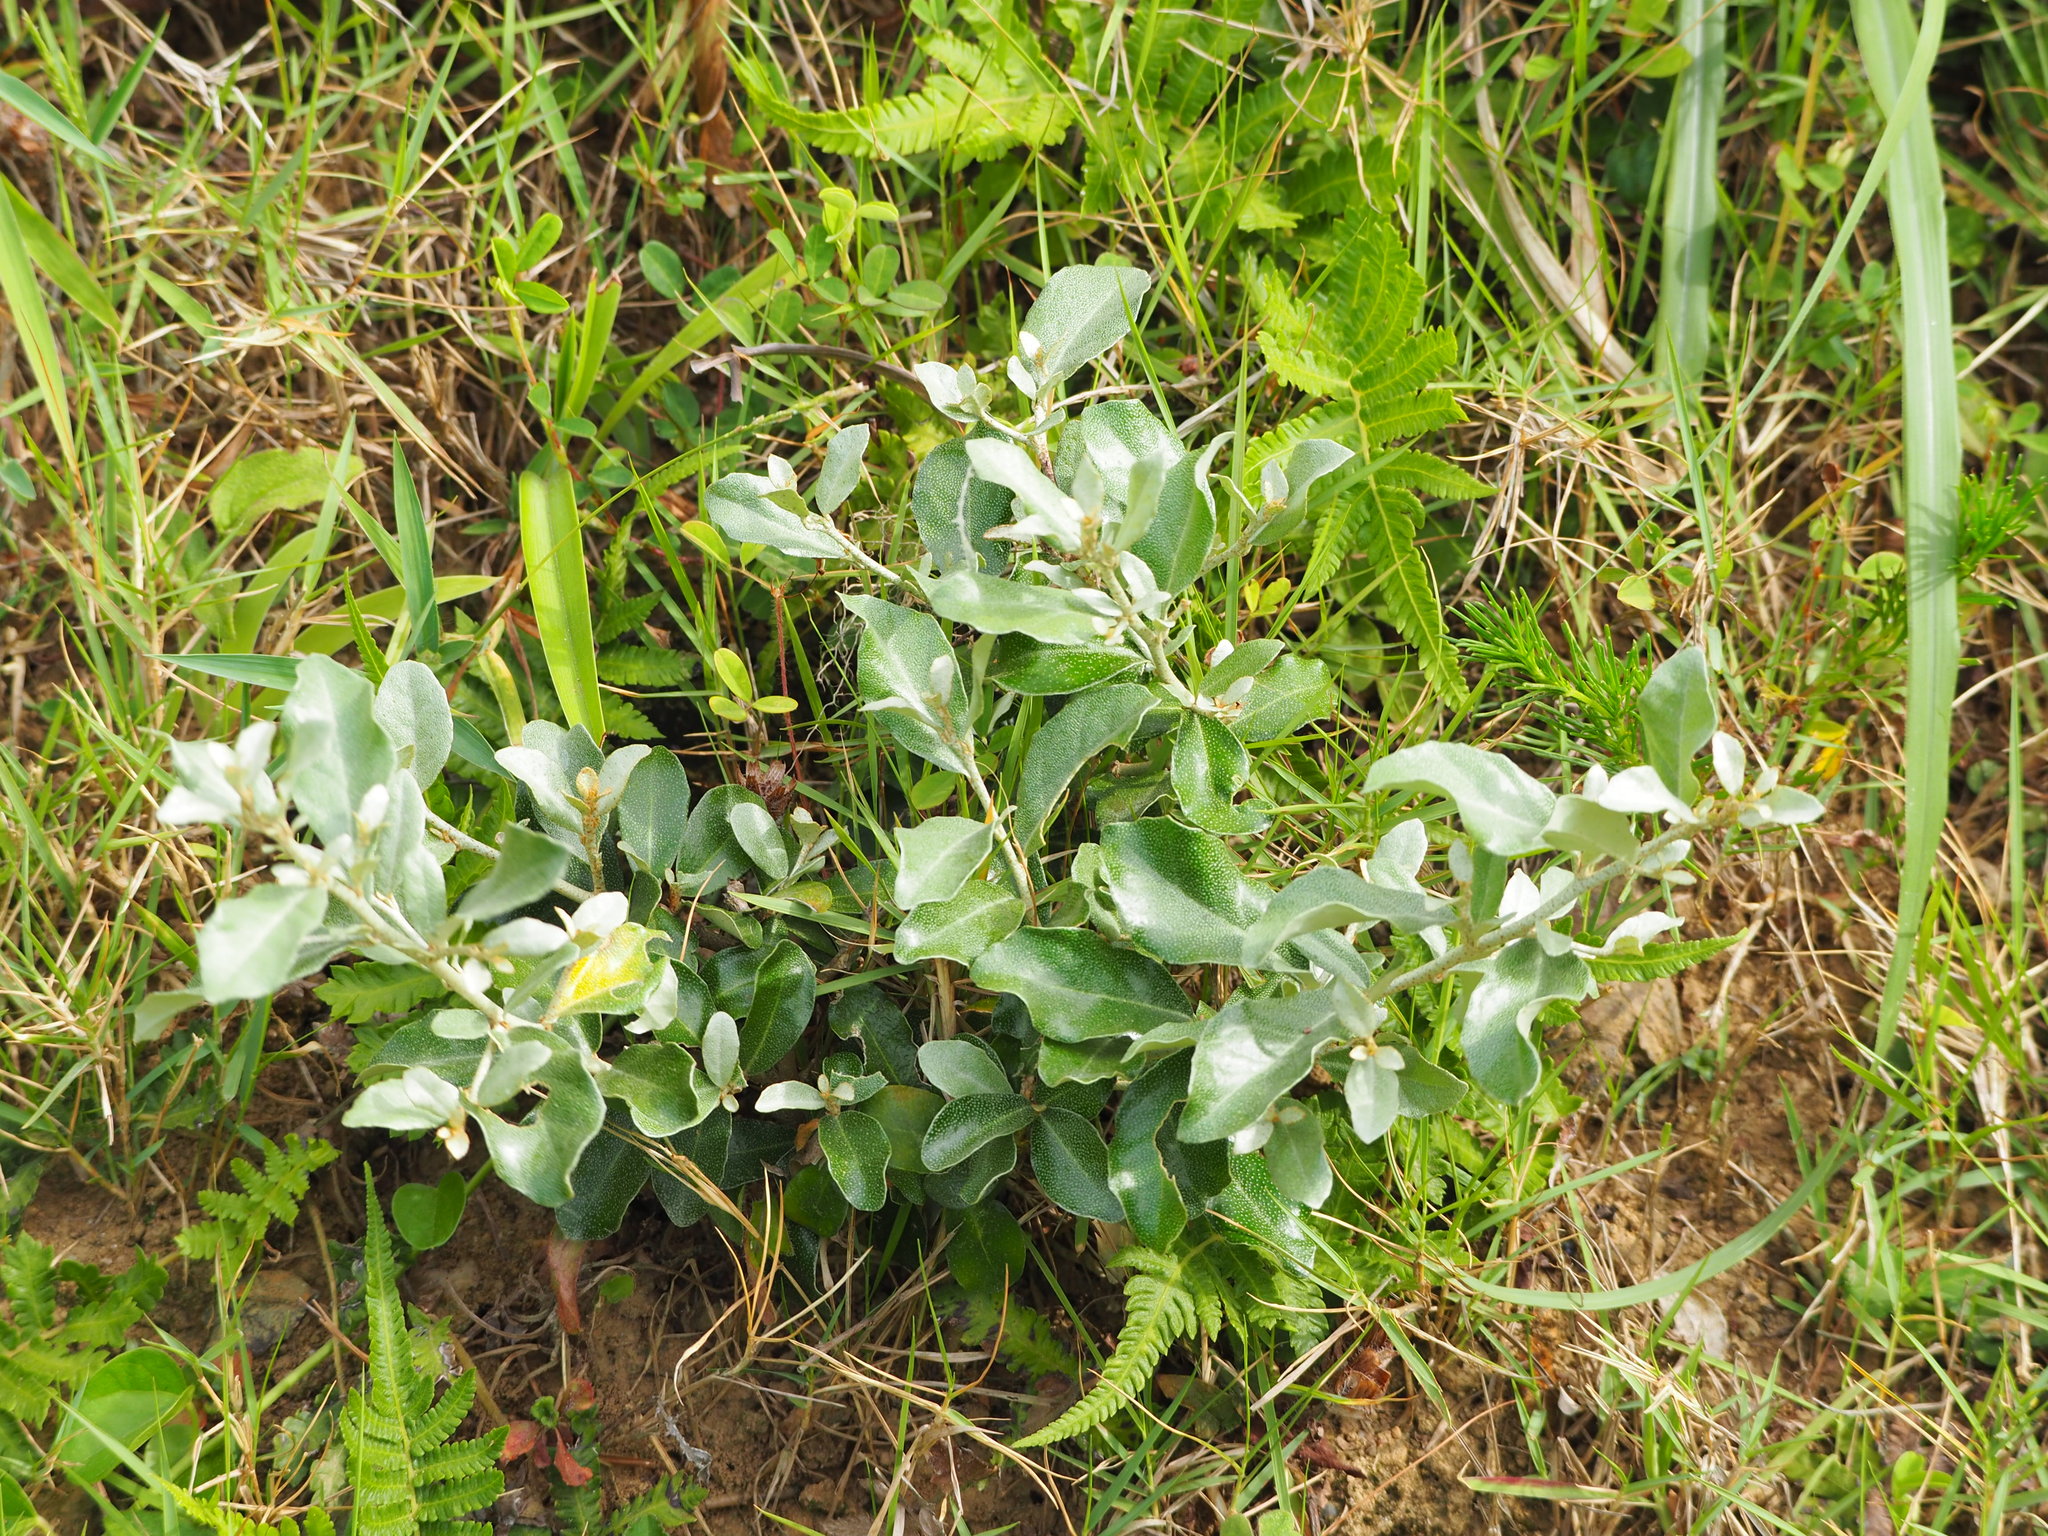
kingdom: Plantae
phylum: Tracheophyta
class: Magnoliopsida
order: Rosales
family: Elaeagnaceae
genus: Elaeagnus
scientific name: Elaeagnus oldhamii
